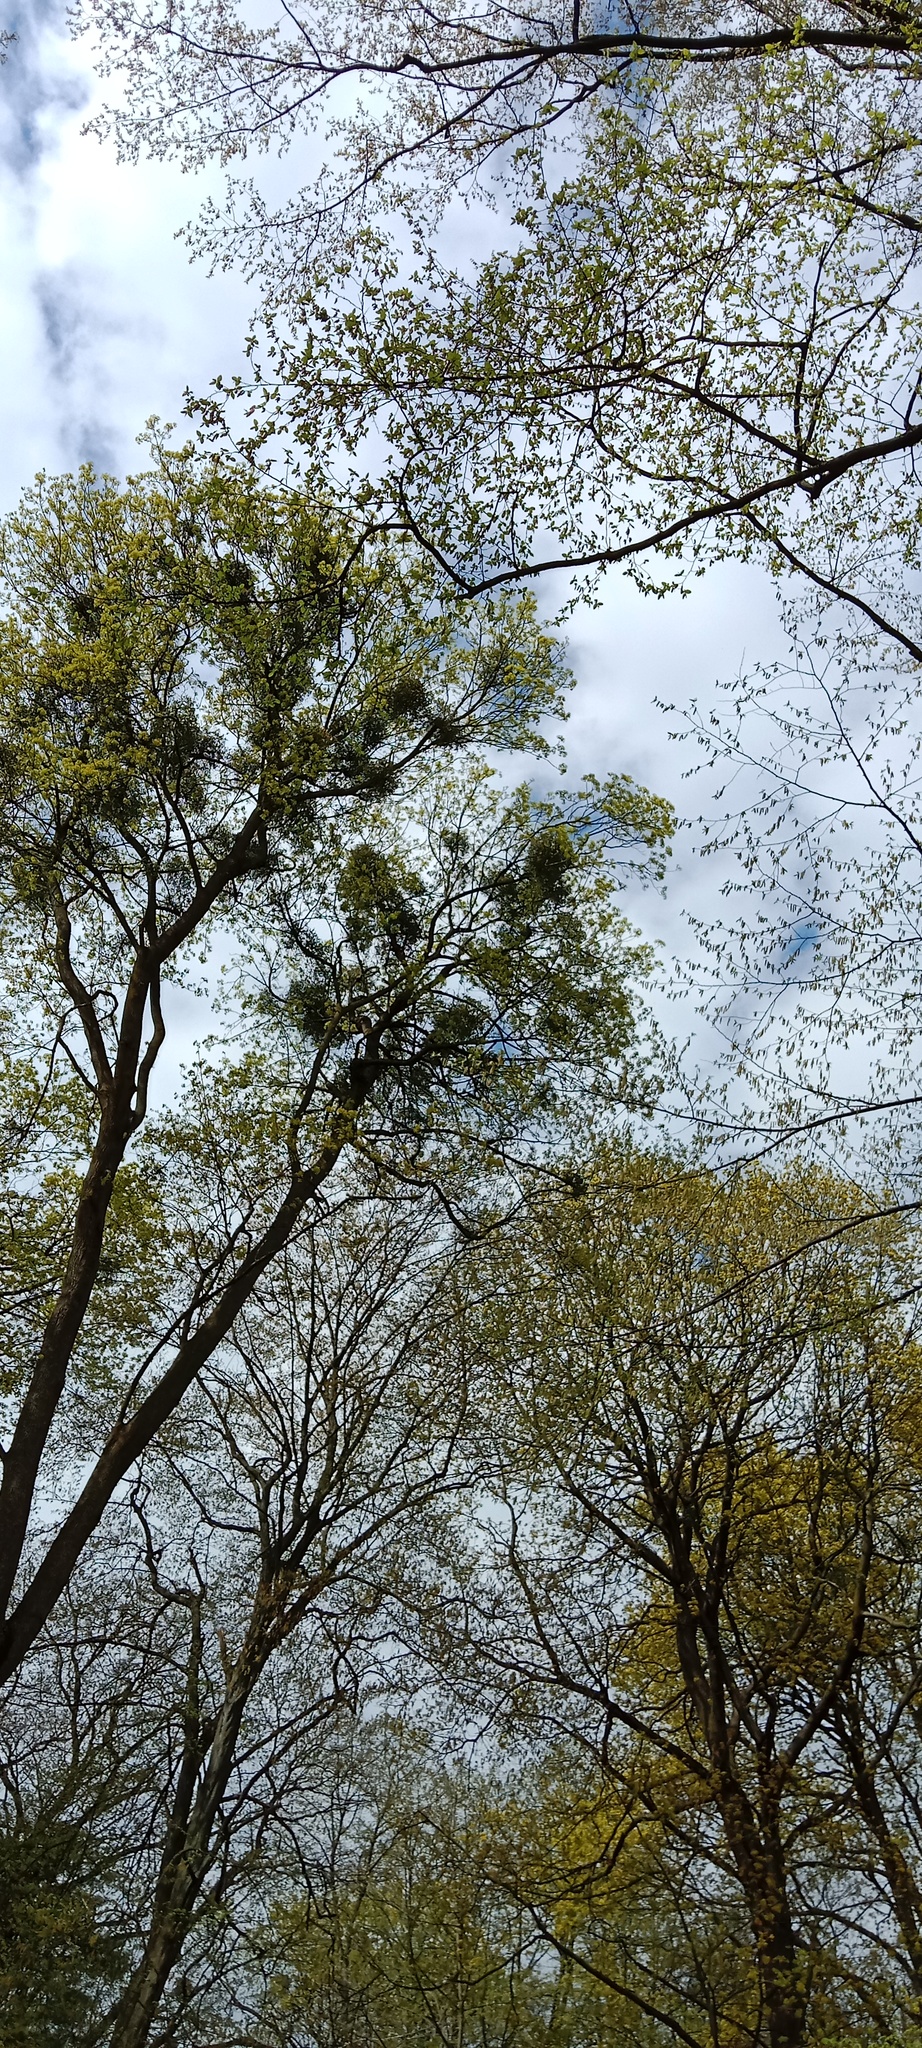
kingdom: Plantae
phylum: Tracheophyta
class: Magnoliopsida
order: Santalales
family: Viscaceae
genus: Viscum
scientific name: Viscum album
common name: Mistletoe
